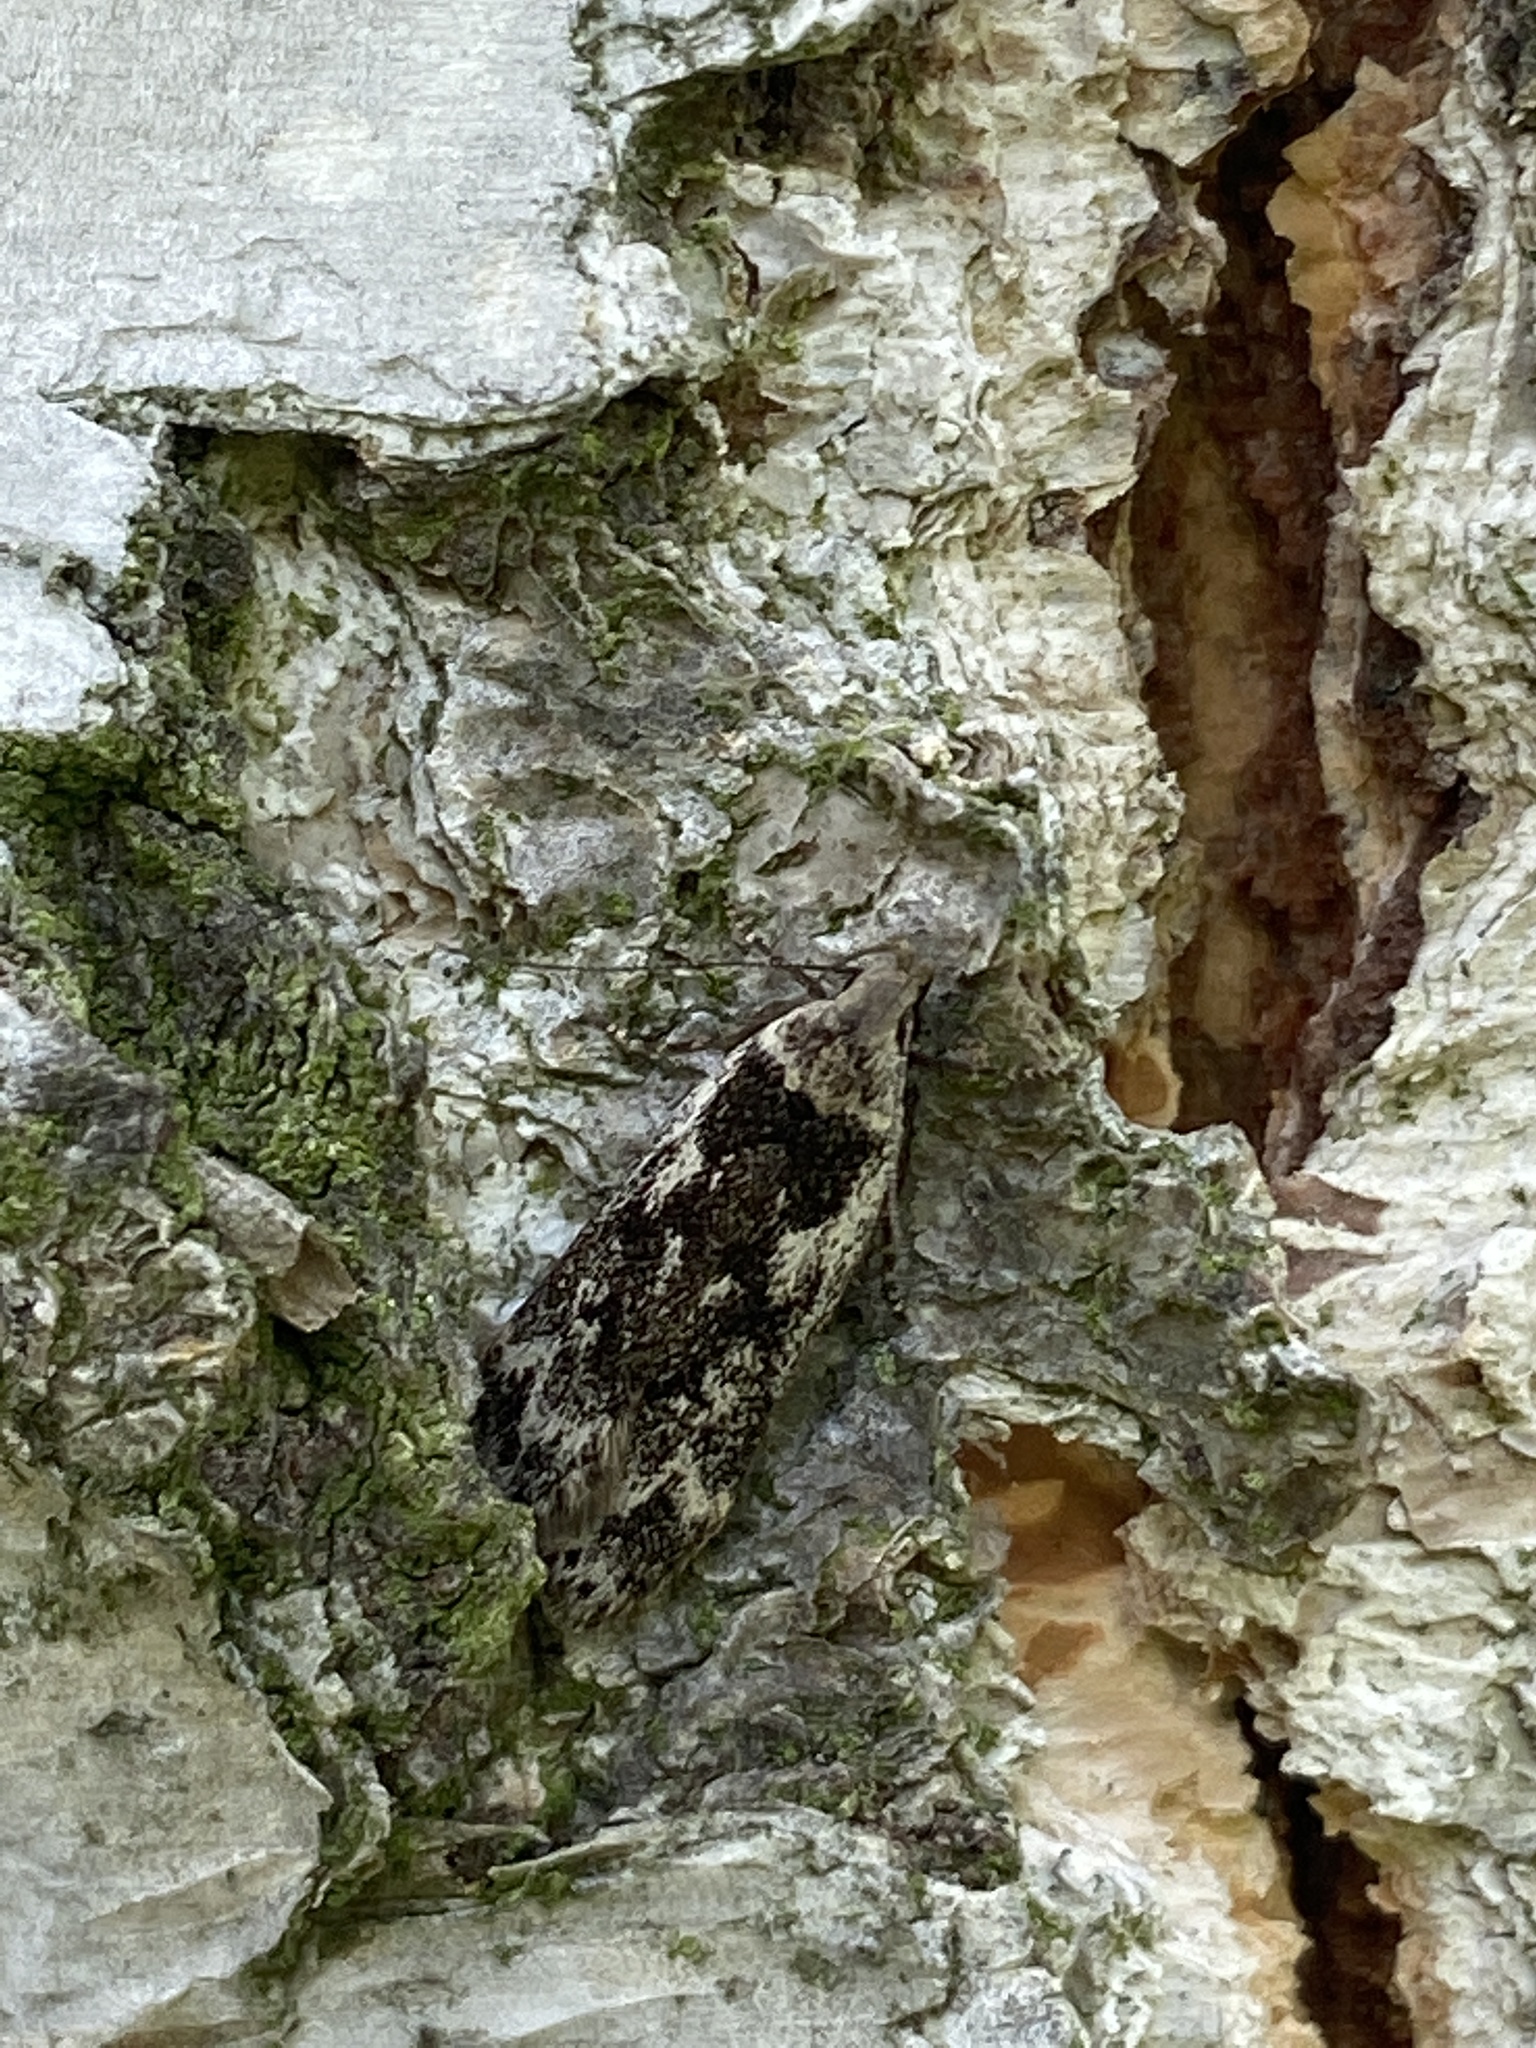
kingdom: Animalia
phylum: Arthropoda
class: Insecta
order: Lepidoptera
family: Gelechiidae
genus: Anacampsis
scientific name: Anacampsis blattariella
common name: Birch sober
